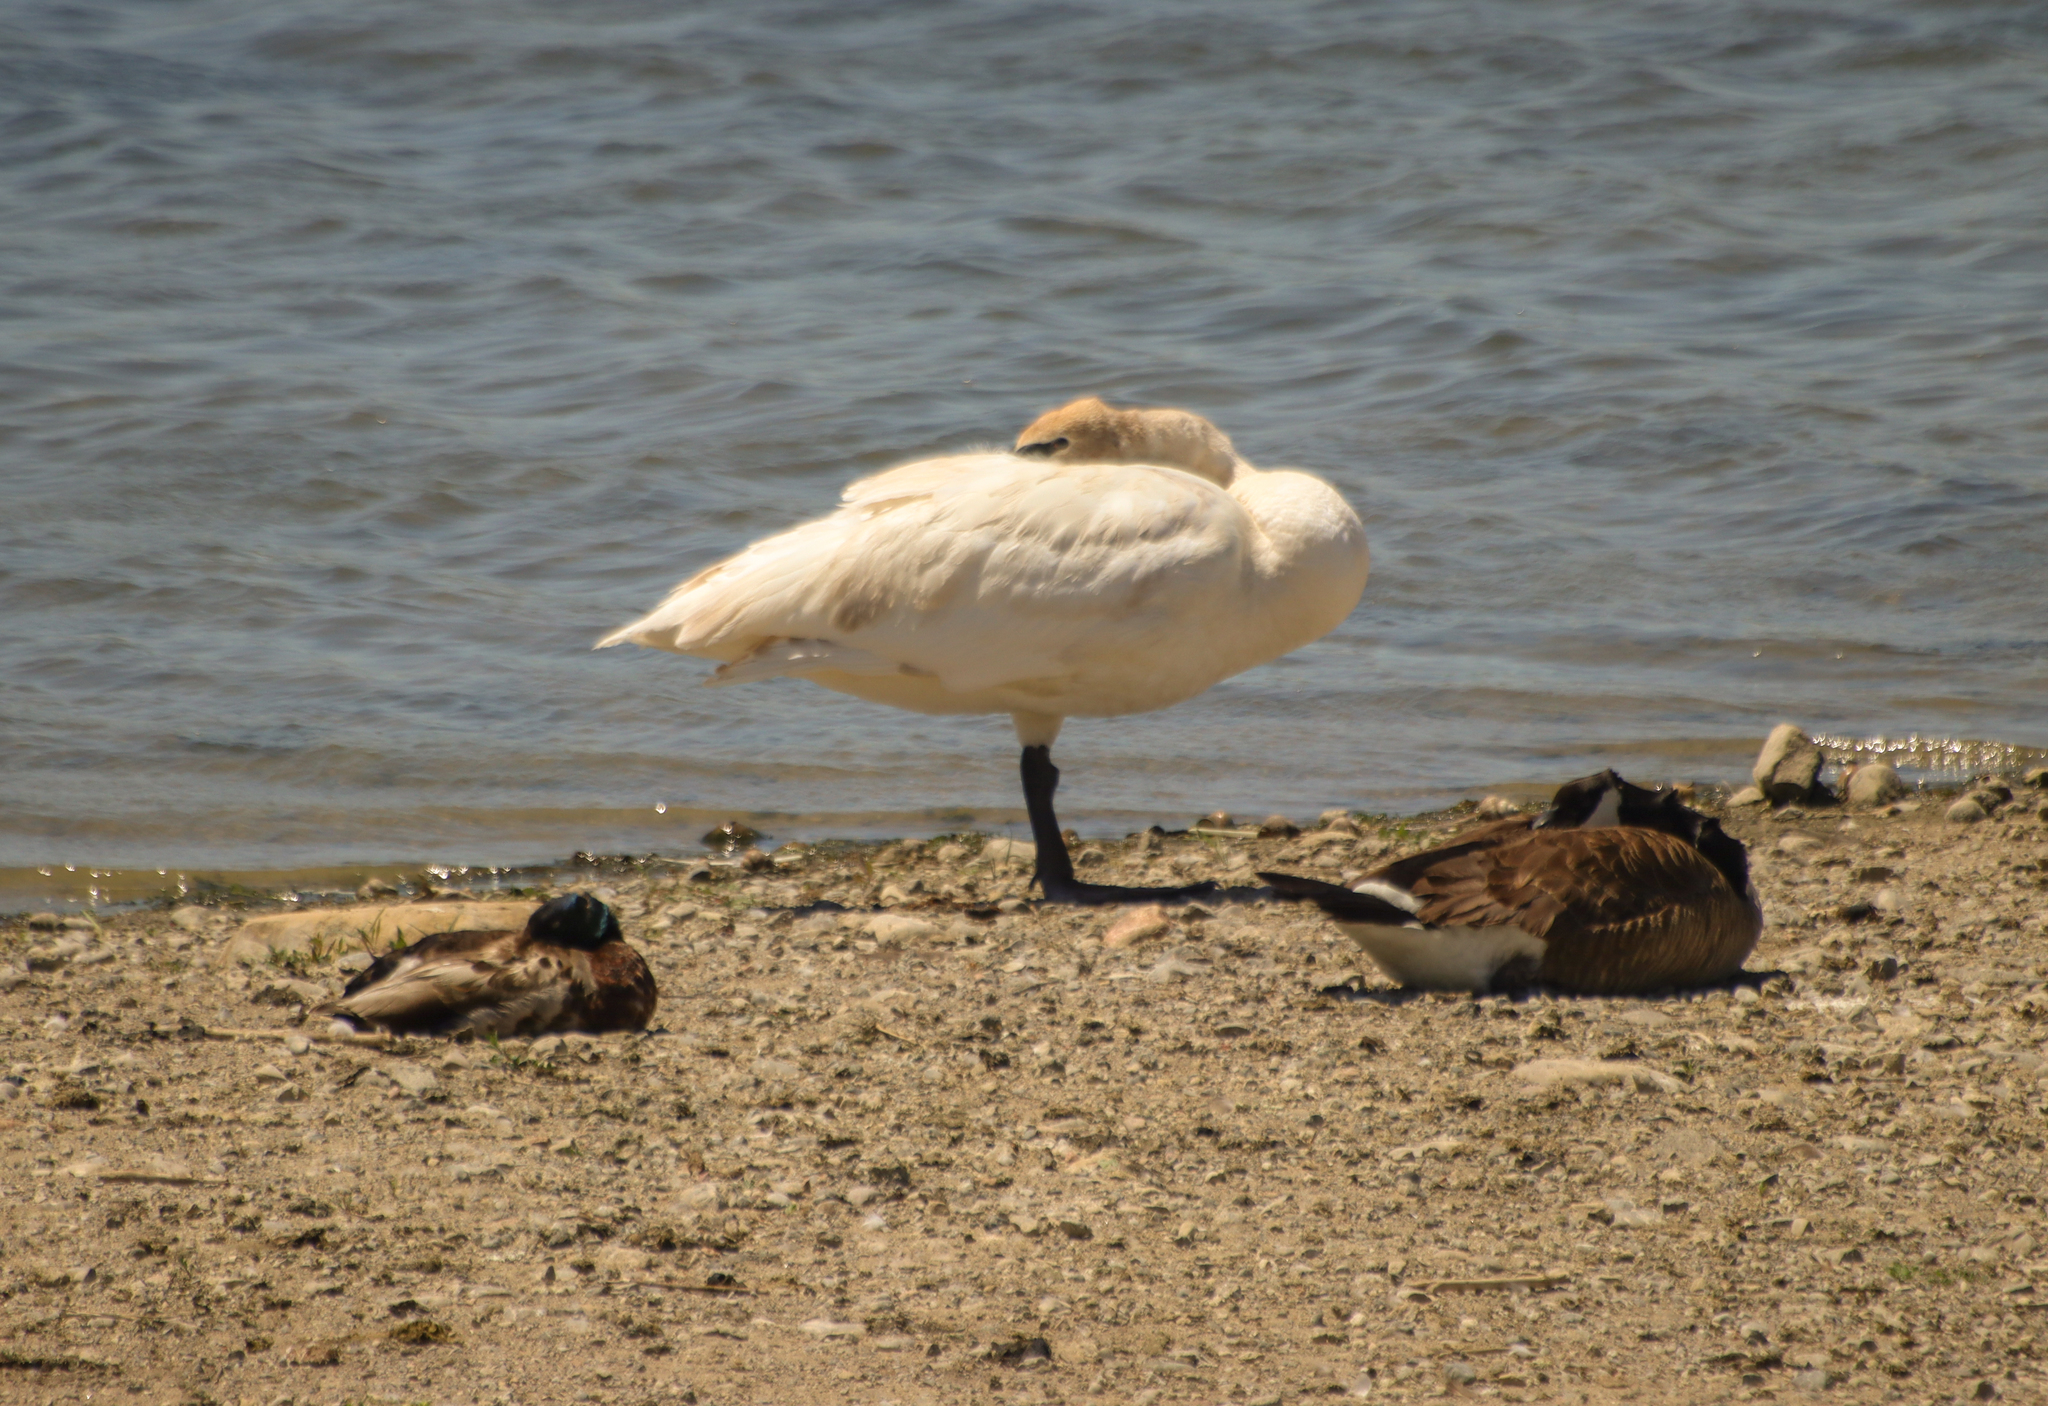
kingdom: Animalia
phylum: Chordata
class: Aves
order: Anseriformes
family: Anatidae
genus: Cygnus
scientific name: Cygnus buccinator
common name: Trumpeter swan
